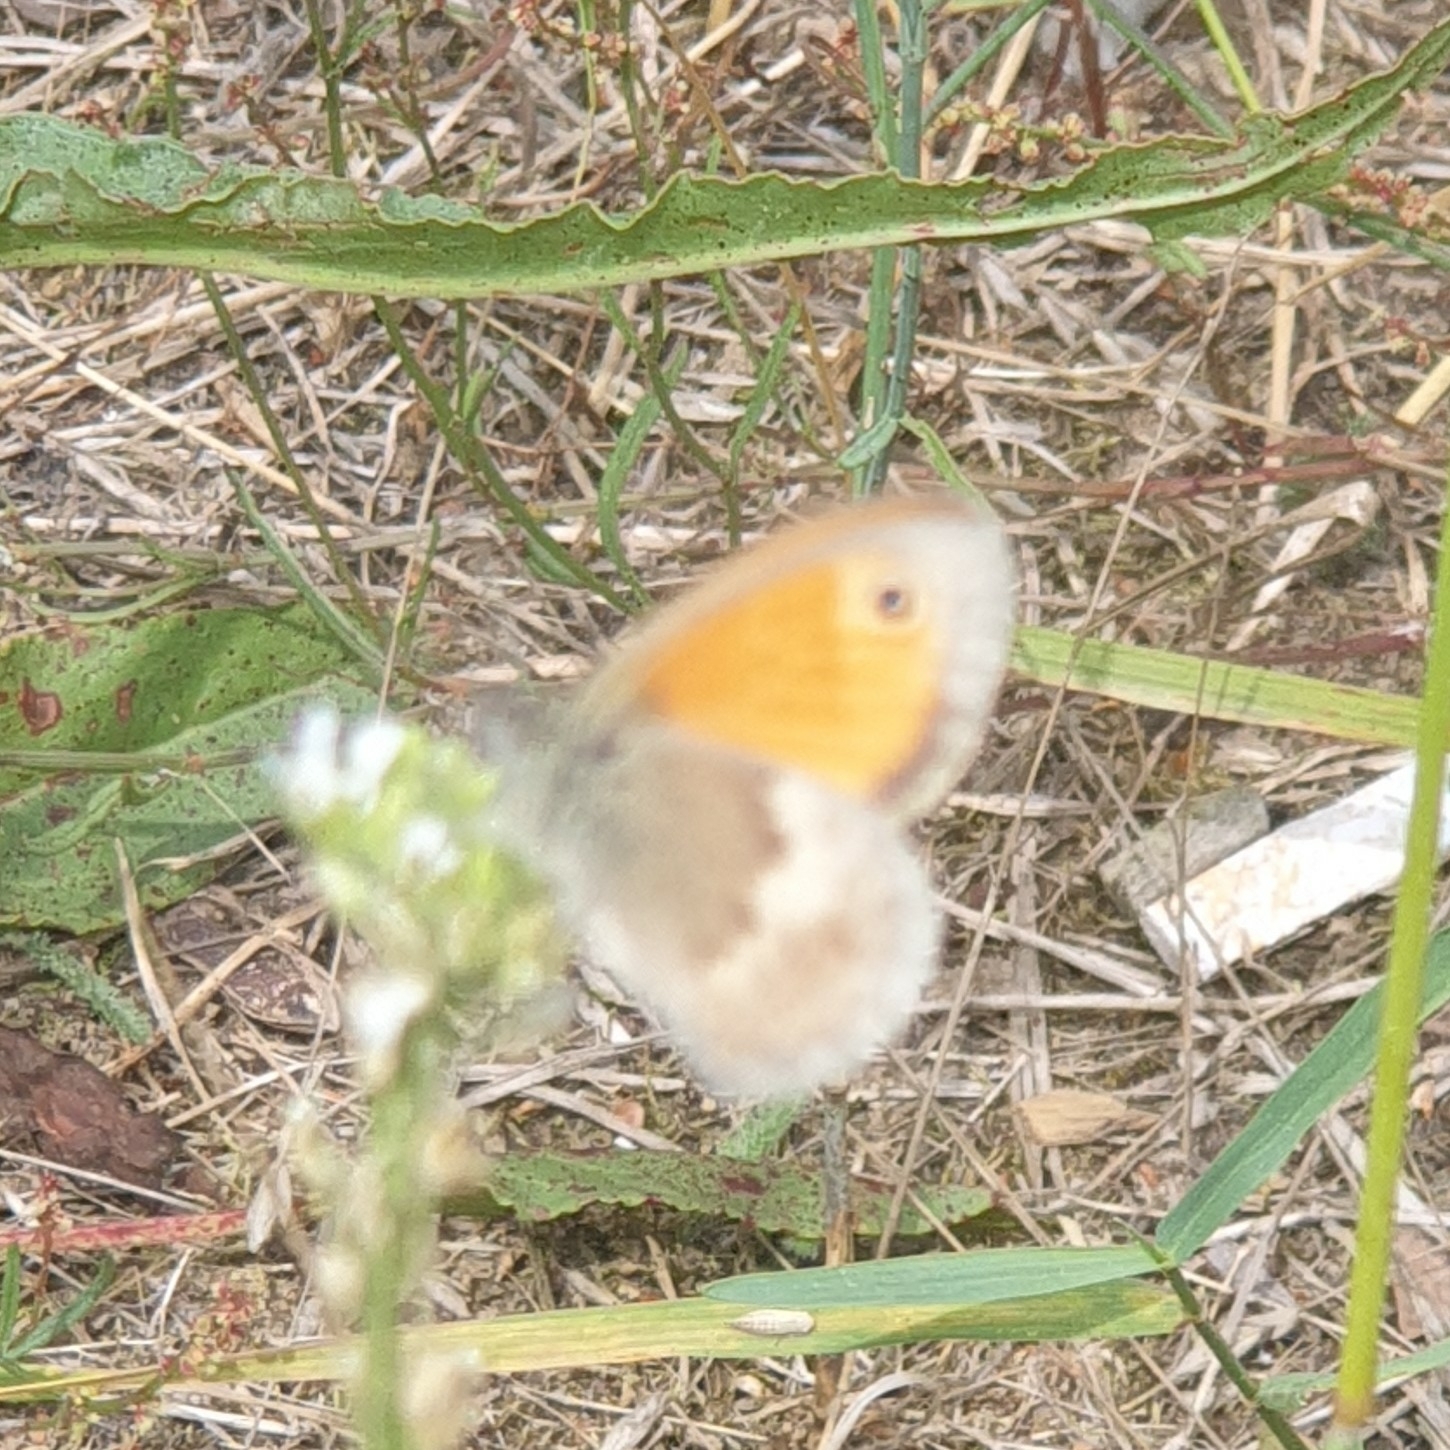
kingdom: Animalia
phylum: Arthropoda
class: Insecta
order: Lepidoptera
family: Nymphalidae
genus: Coenonympha
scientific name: Coenonympha pamphilus
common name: Small heath
